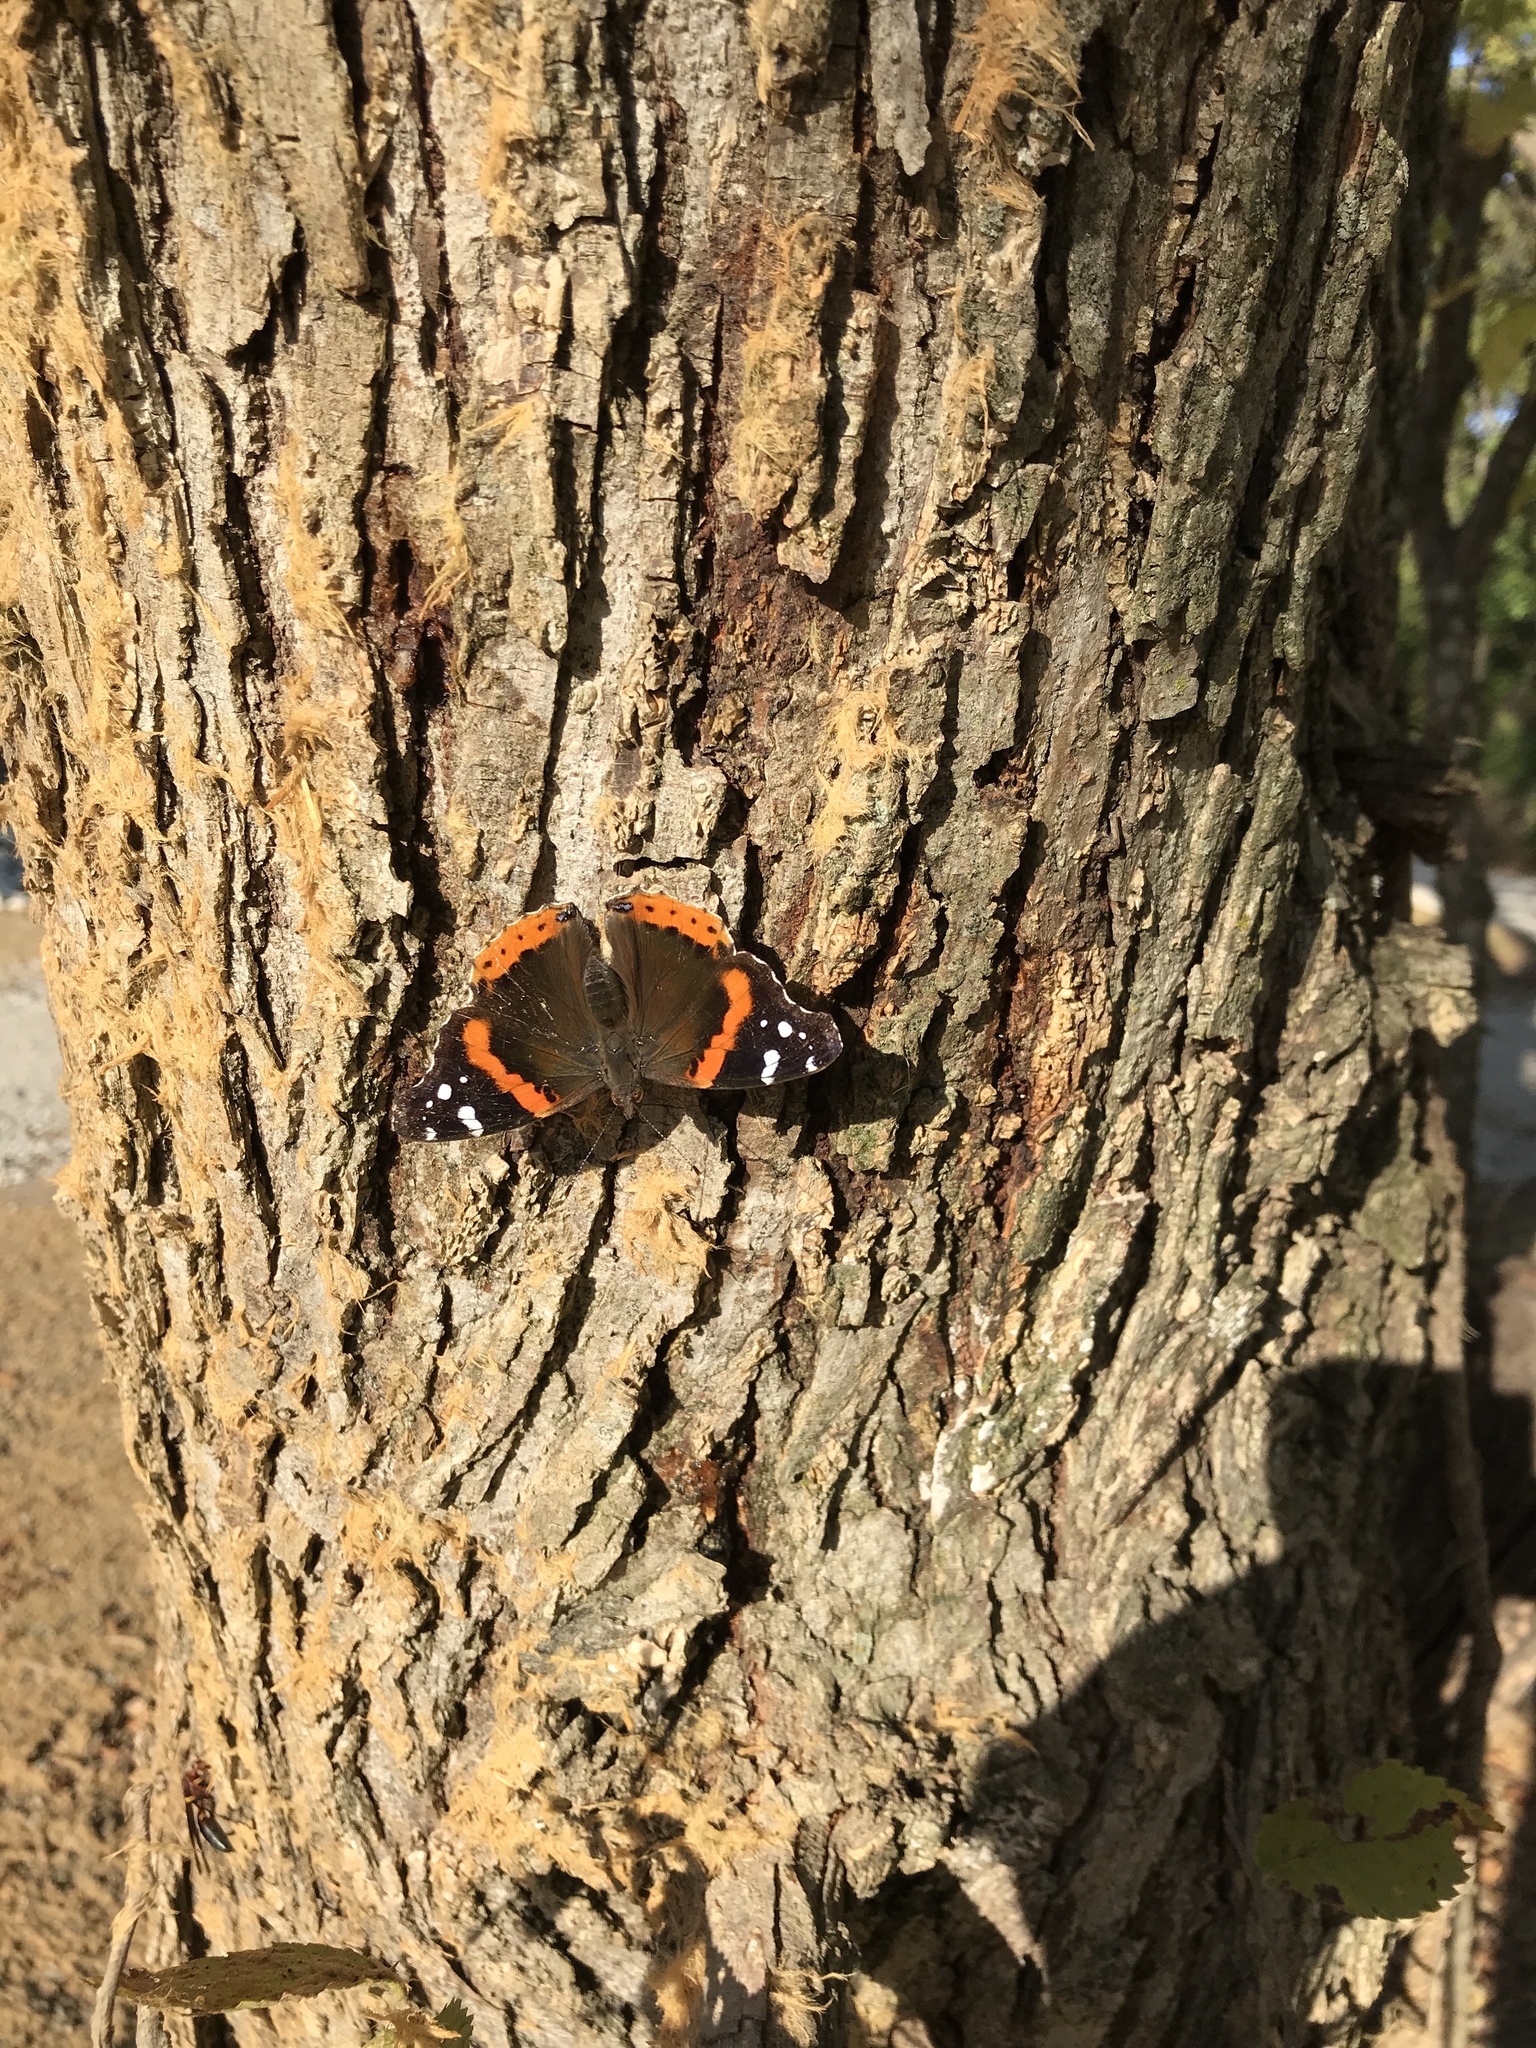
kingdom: Animalia
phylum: Arthropoda
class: Insecta
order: Lepidoptera
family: Nymphalidae
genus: Vanessa
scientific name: Vanessa atalanta
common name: Red admiral
